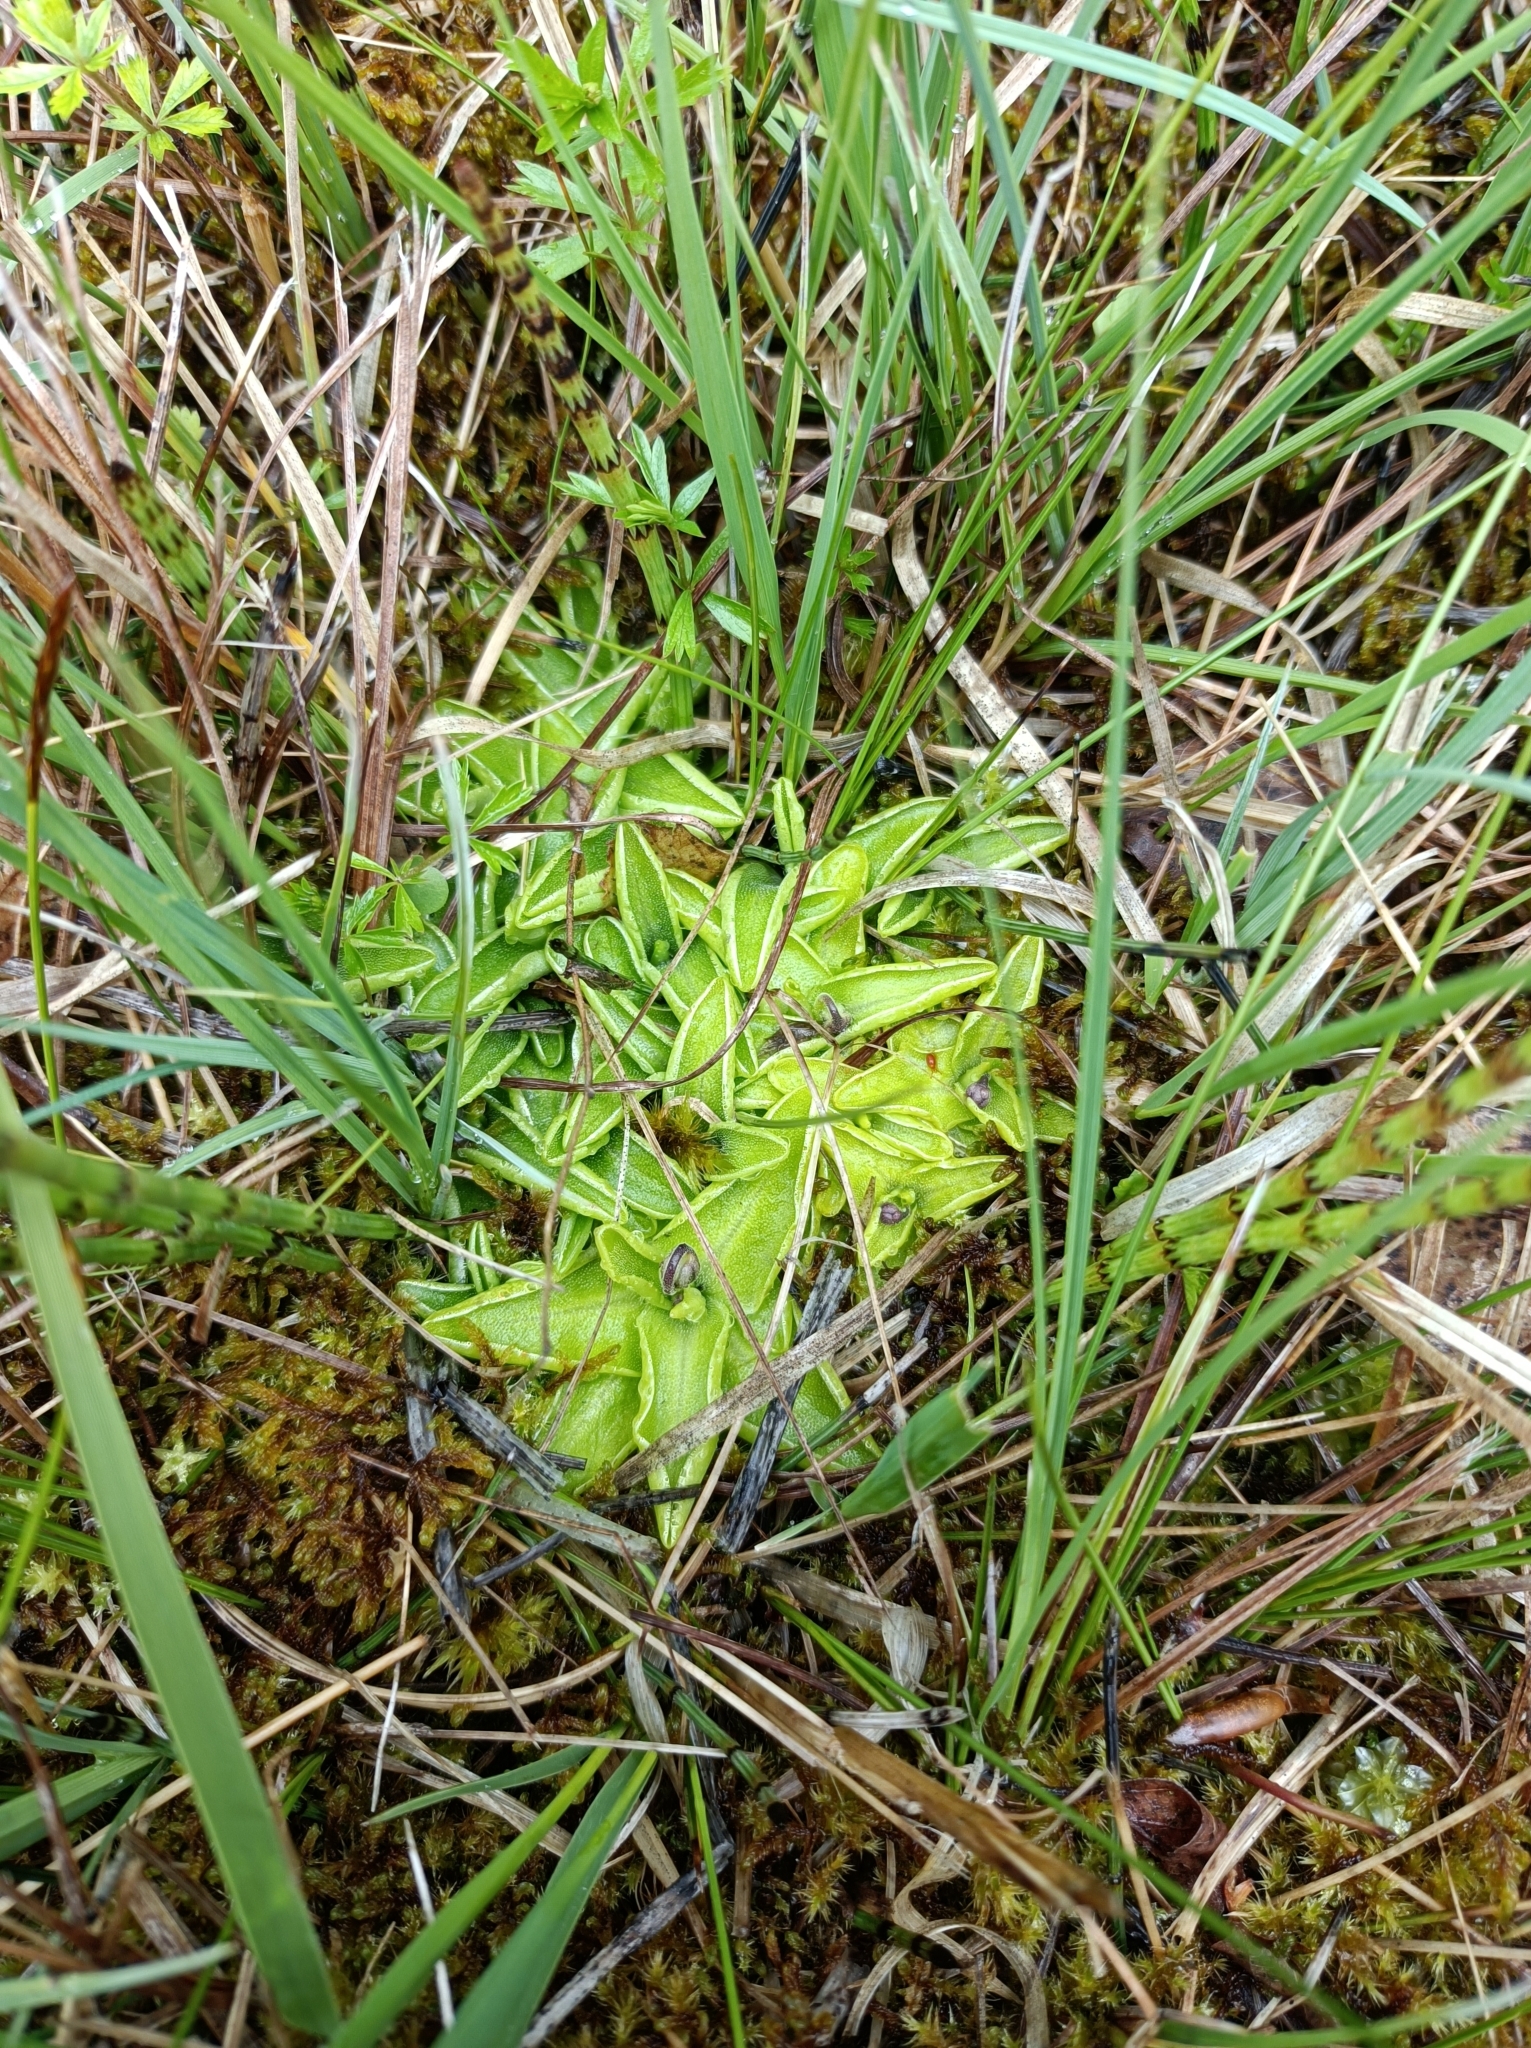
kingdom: Plantae
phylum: Tracheophyta
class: Magnoliopsida
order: Lamiales
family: Lentibulariaceae
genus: Pinguicula
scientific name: Pinguicula vulgaris
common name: Common butterwort
